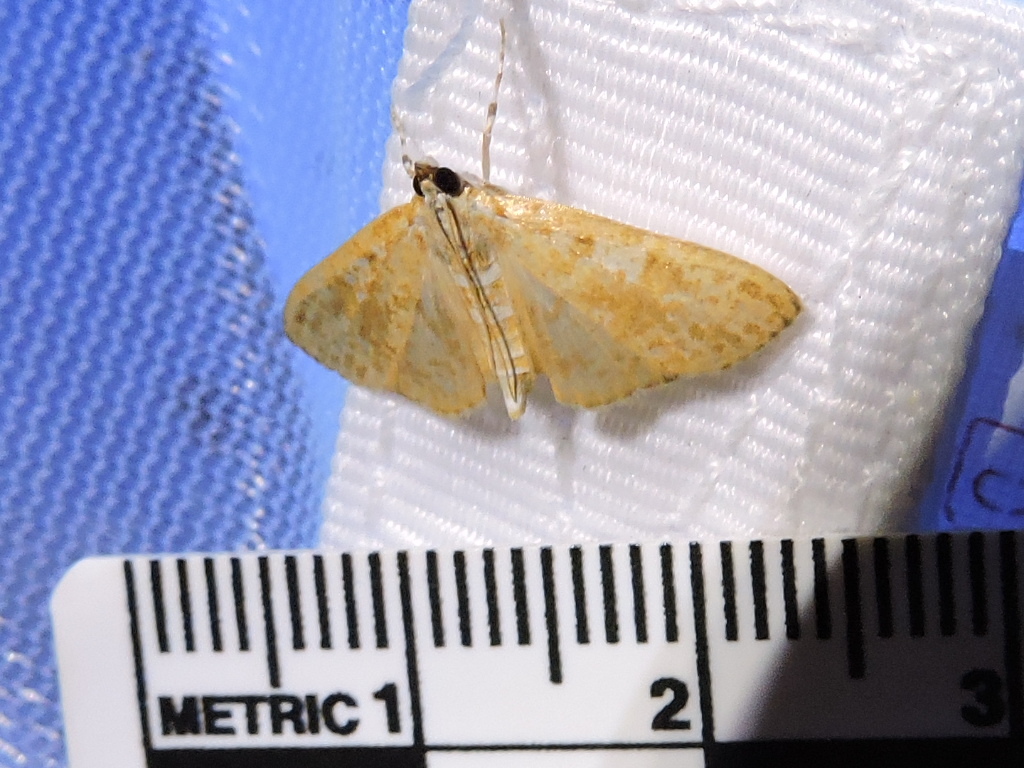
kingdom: Animalia
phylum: Arthropoda
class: Insecta
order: Lepidoptera
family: Crambidae
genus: Palpita
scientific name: Palpita freemanalis
